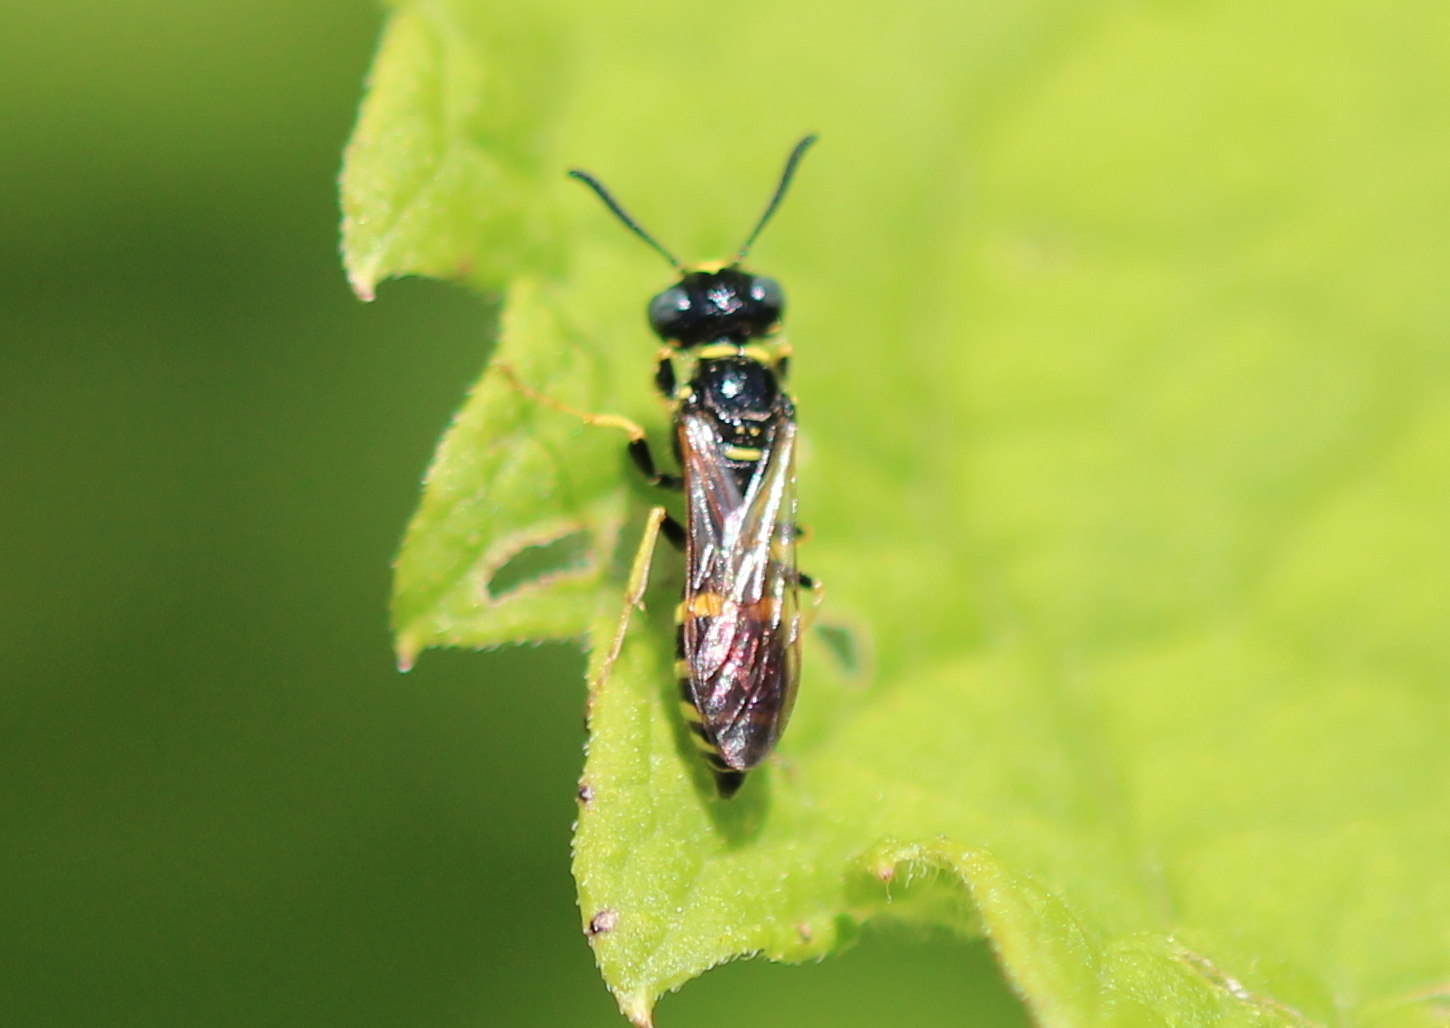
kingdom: Animalia
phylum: Arthropoda
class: Insecta
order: Hymenoptera
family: Crabronidae
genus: Philanthus
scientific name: Philanthus bilunatus
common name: Two moons beewolf
